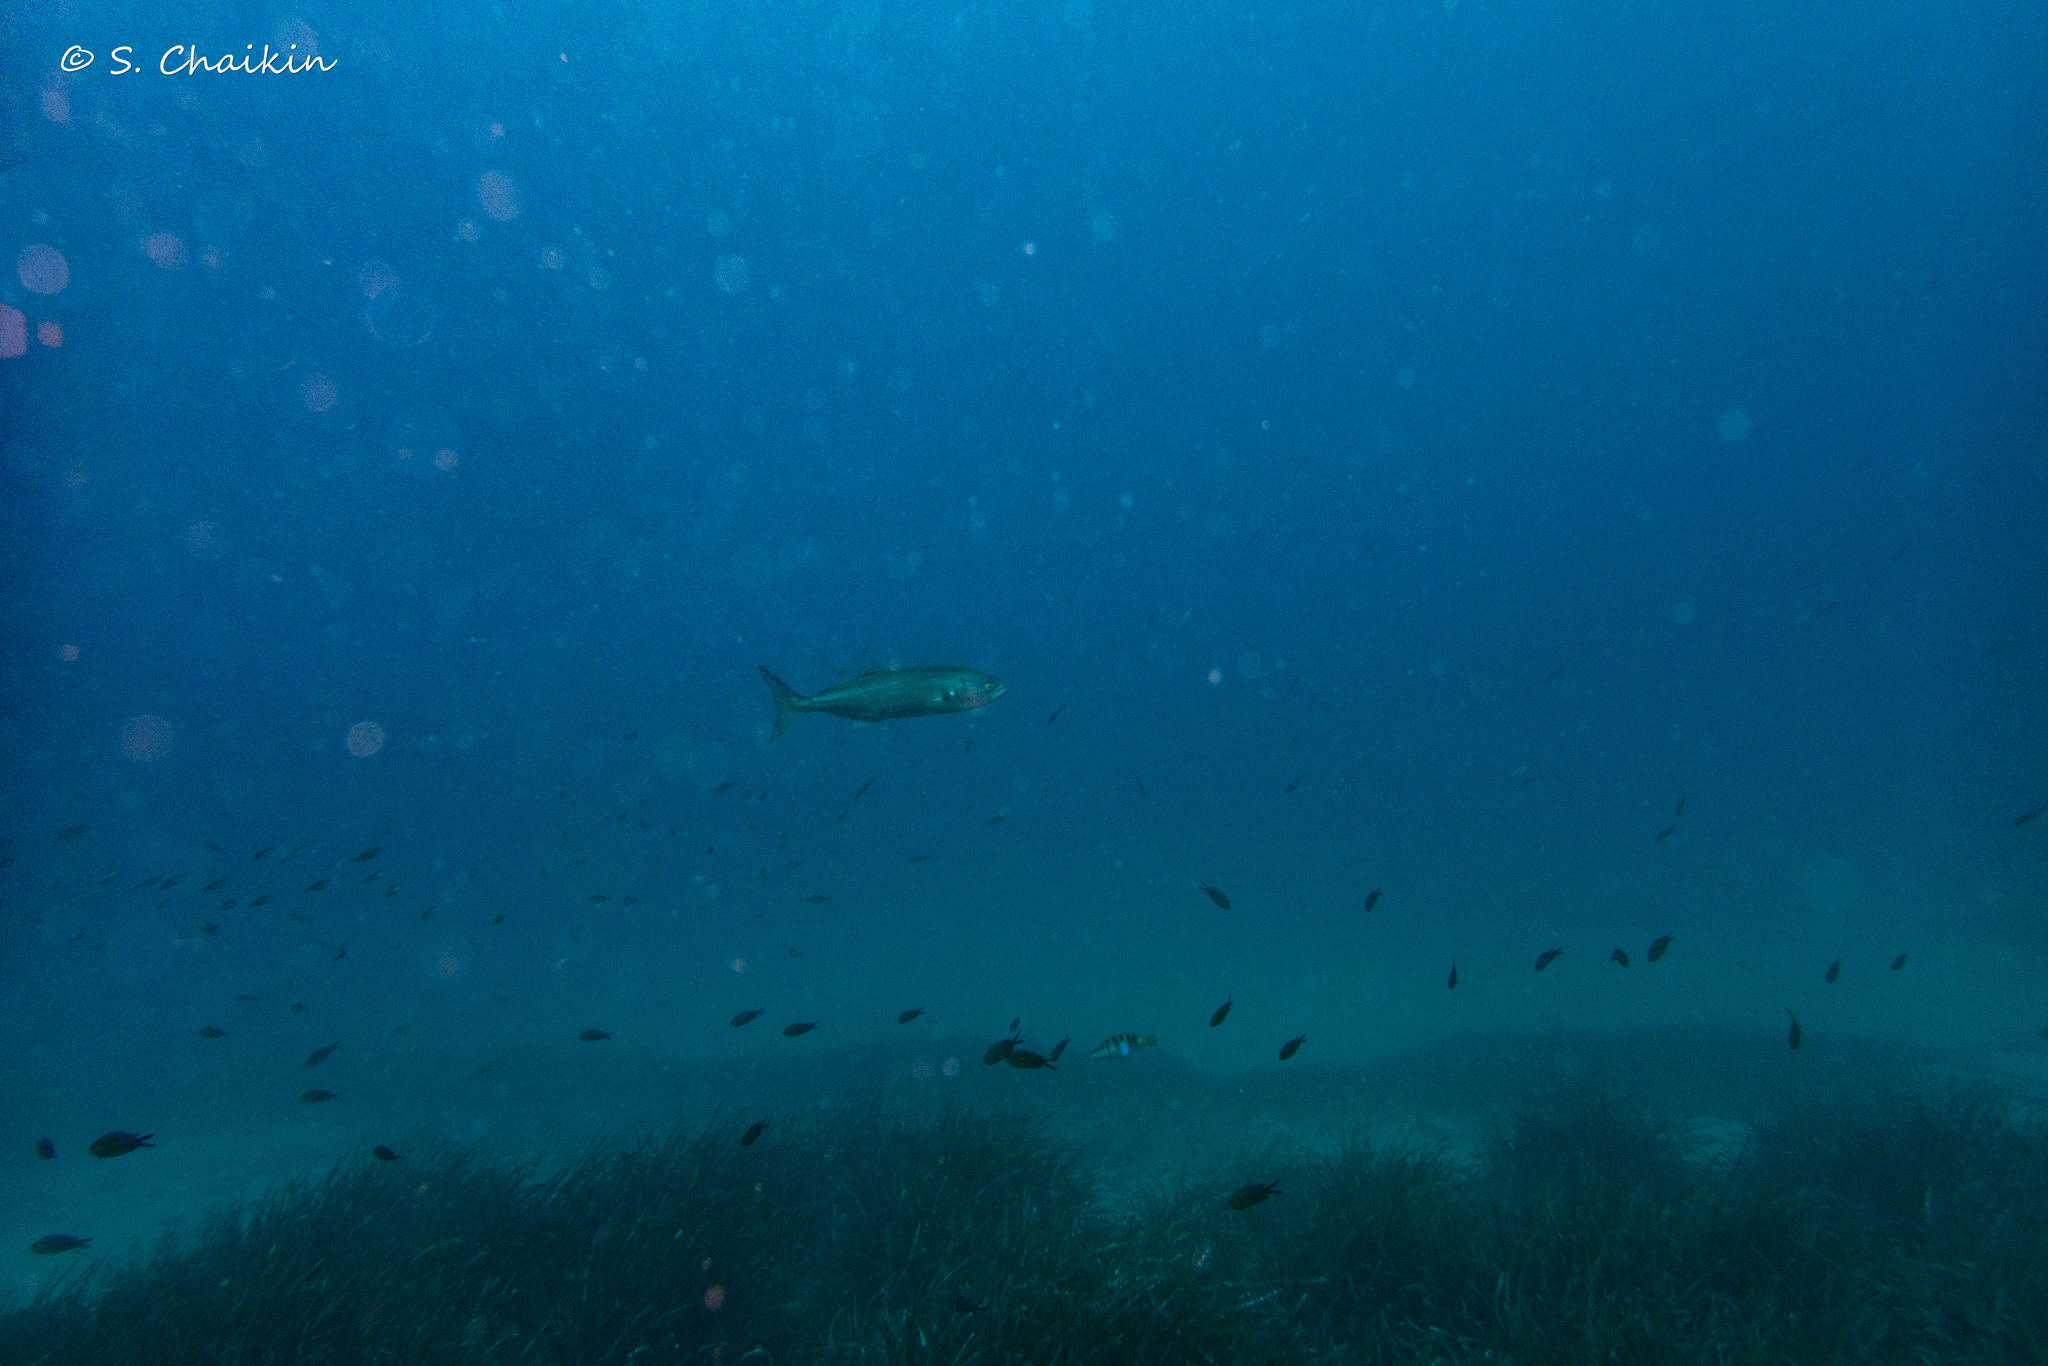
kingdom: Animalia
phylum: Chordata
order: Perciformes
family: Pomatomidae
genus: Pomatomus
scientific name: Pomatomus saltatrix
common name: Bluefish
